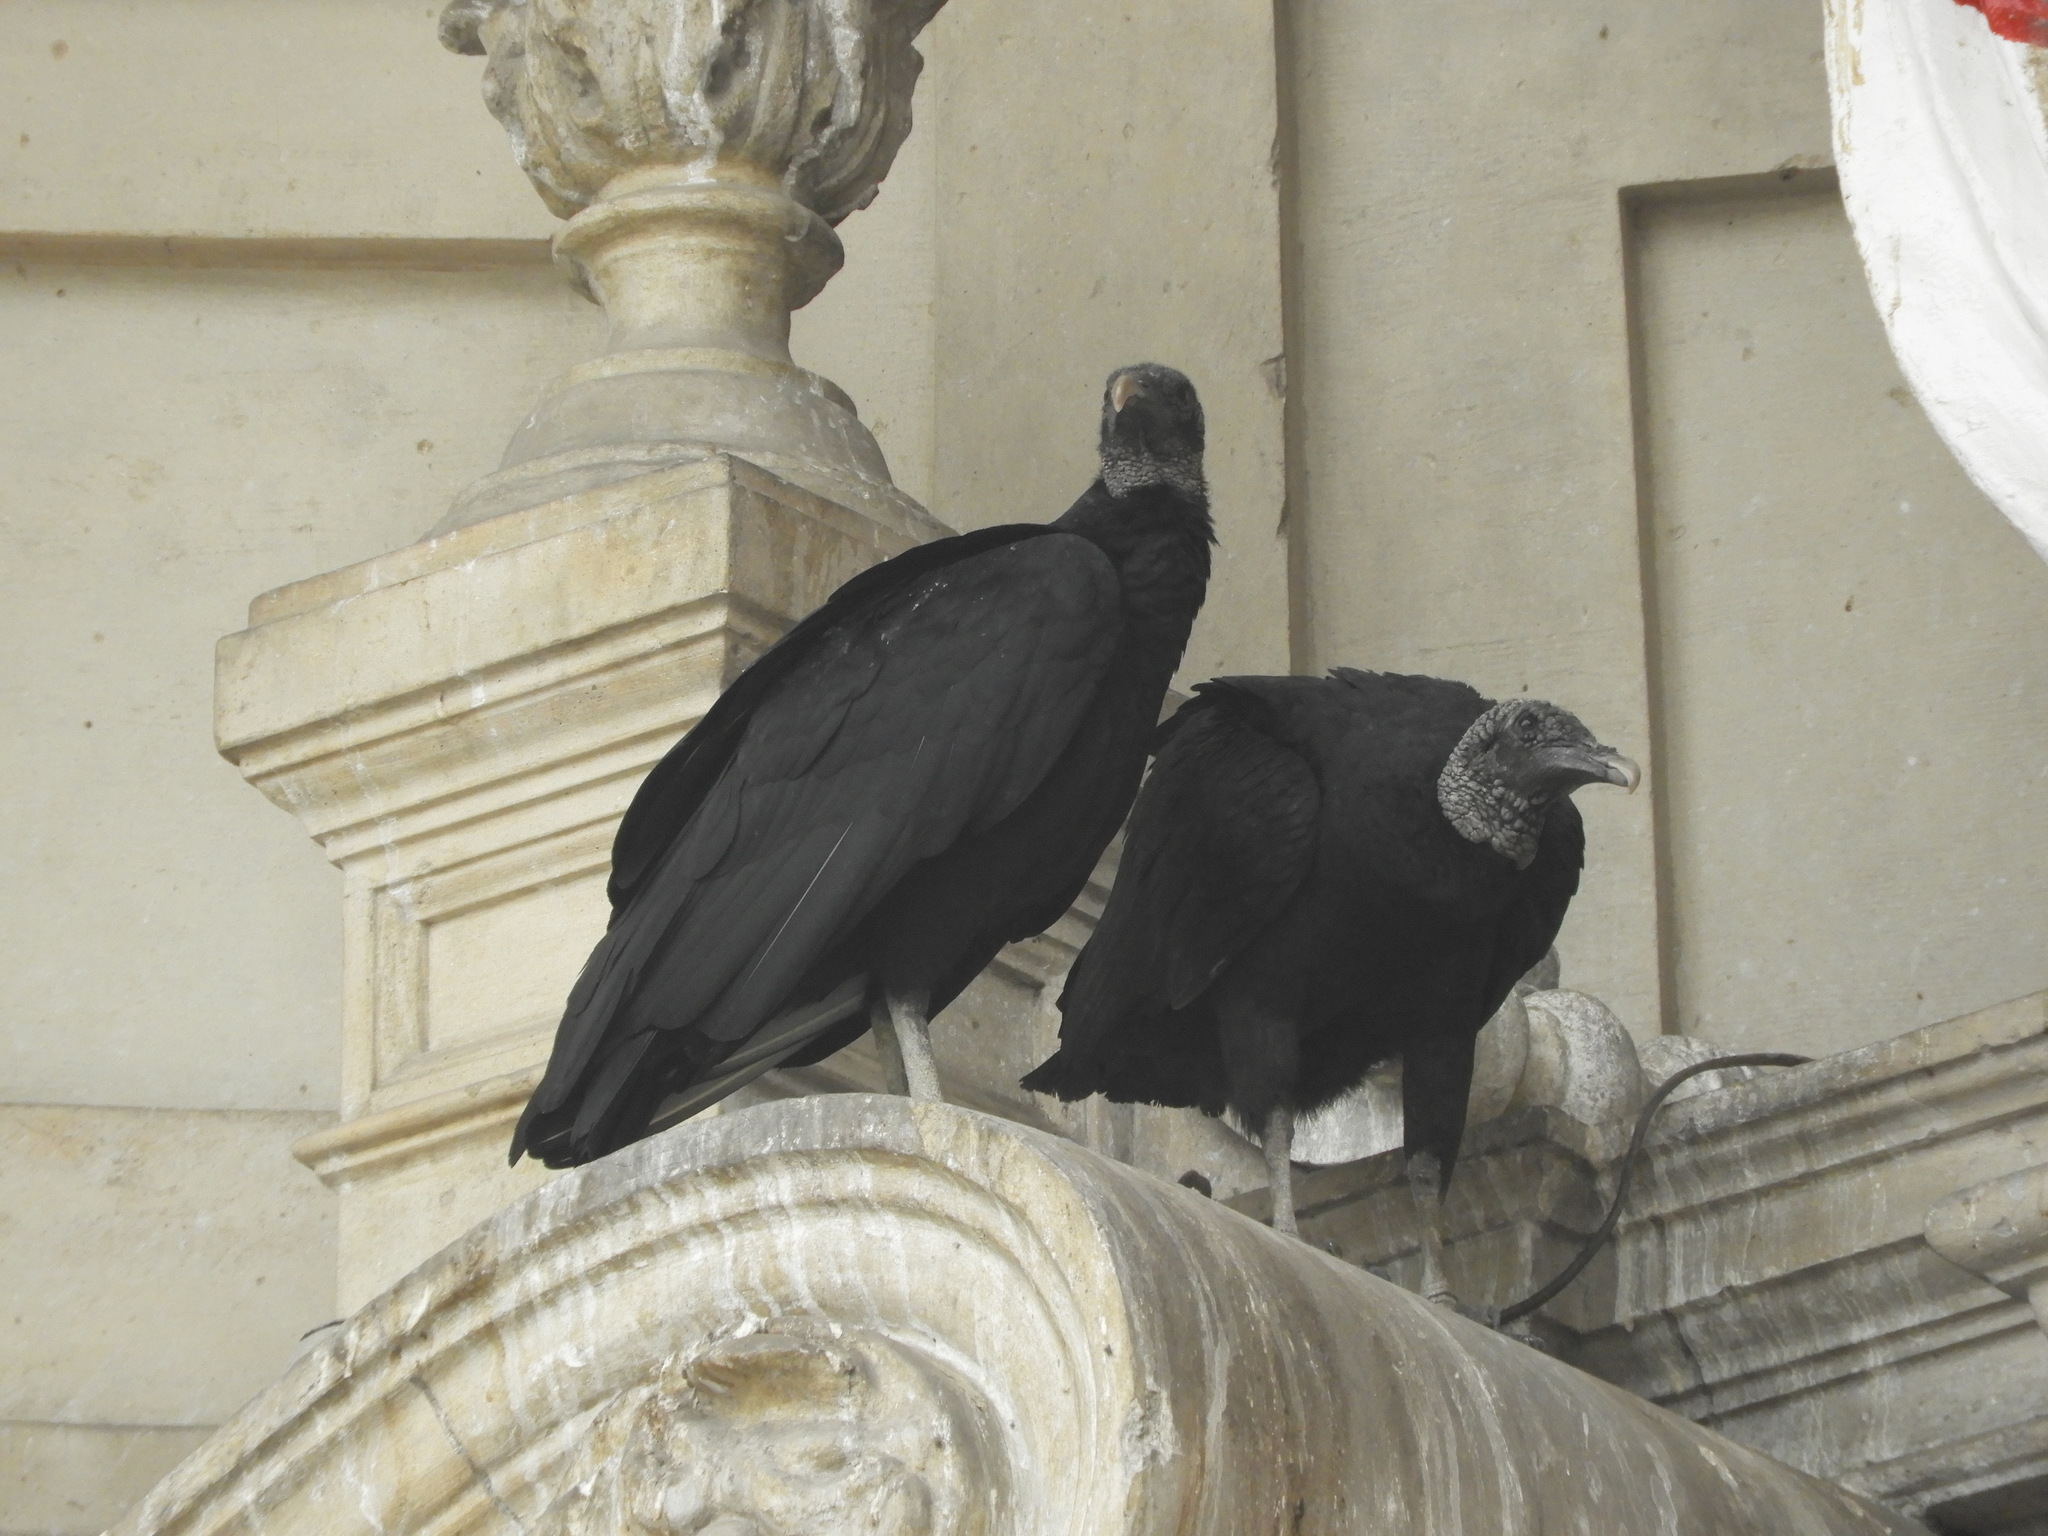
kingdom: Animalia
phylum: Chordata
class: Aves
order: Accipitriformes
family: Cathartidae
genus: Coragyps
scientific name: Coragyps atratus
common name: Black vulture
